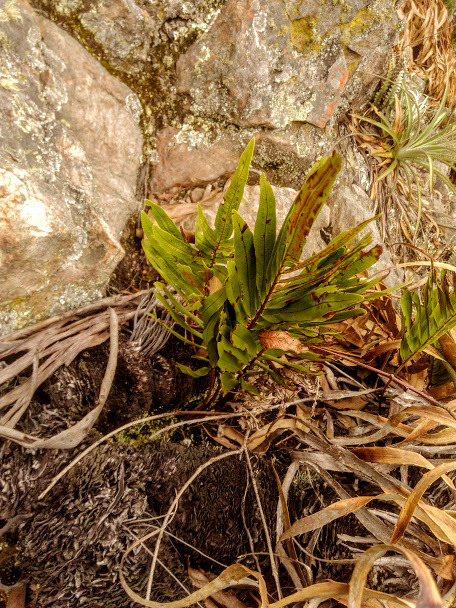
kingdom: Plantae
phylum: Tracheophyta
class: Polypodiopsida
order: Polypodiales
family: Polypodiaceae
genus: Serpocaulon
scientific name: Serpocaulon sessilifolium
